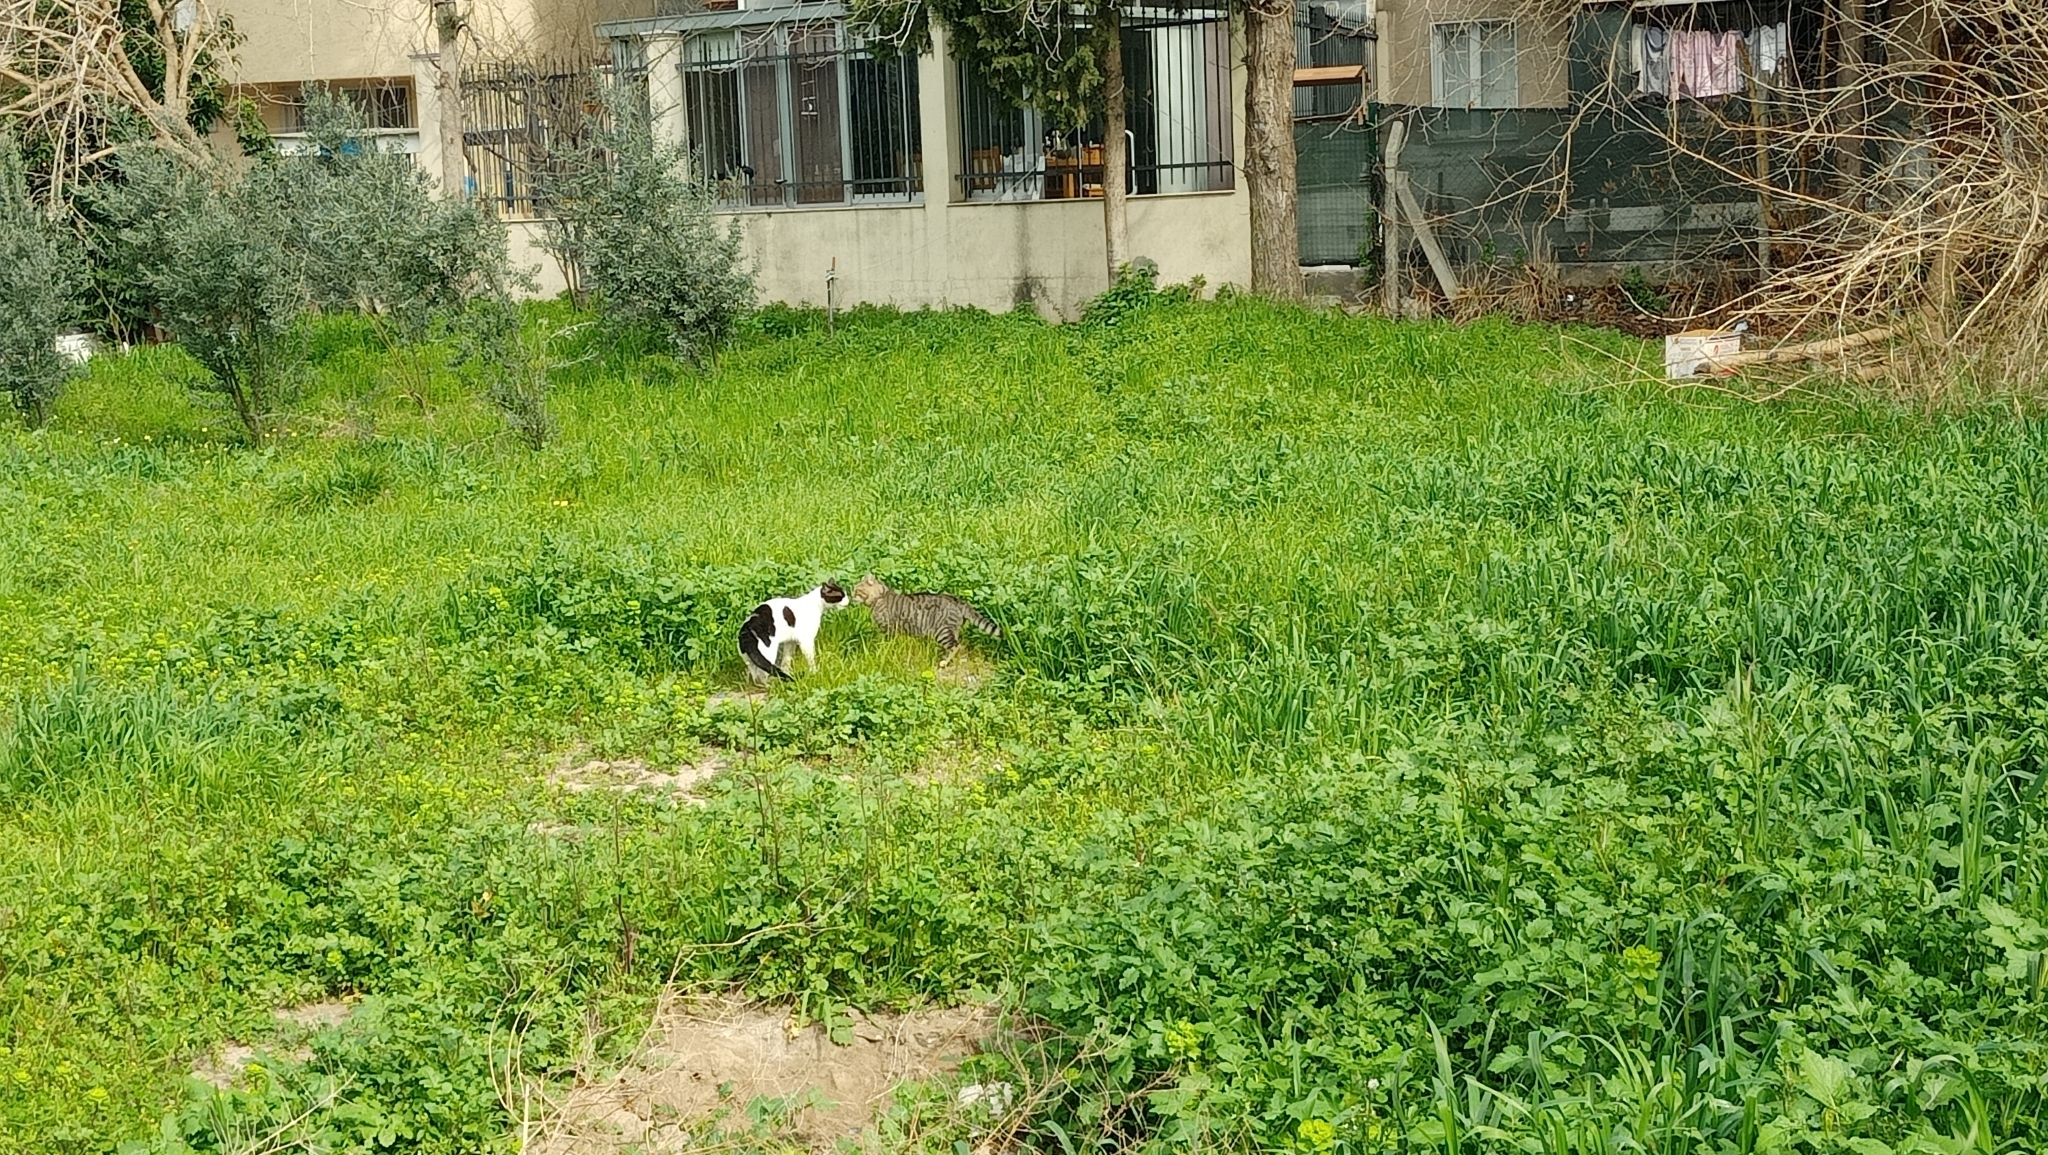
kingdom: Animalia
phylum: Chordata
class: Mammalia
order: Carnivora
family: Felidae
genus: Felis
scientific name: Felis catus
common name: Domestic cat
